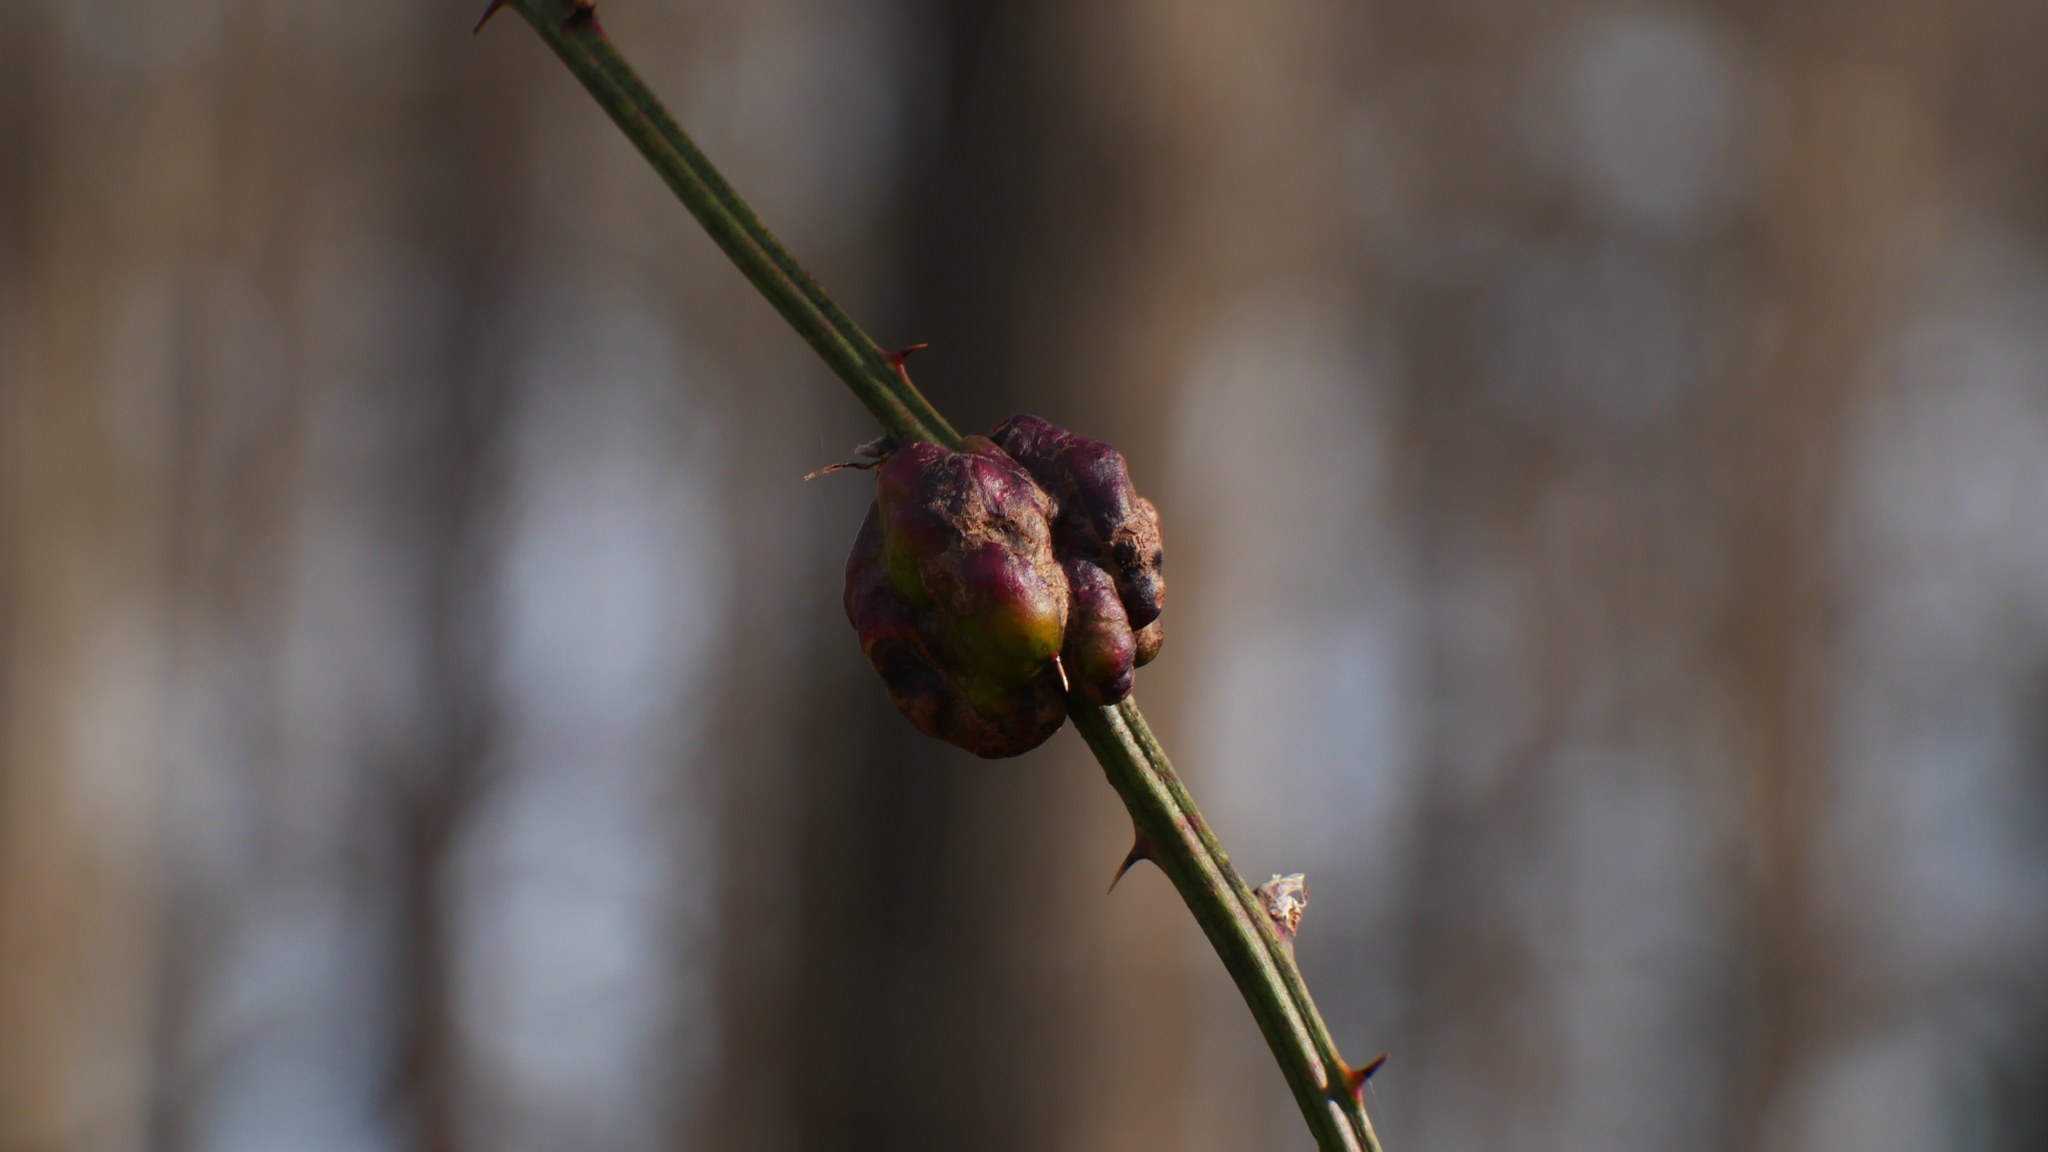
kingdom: Animalia
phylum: Arthropoda
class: Insecta
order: Hymenoptera
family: Cynipidae
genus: Diastrophus
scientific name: Diastrophus
